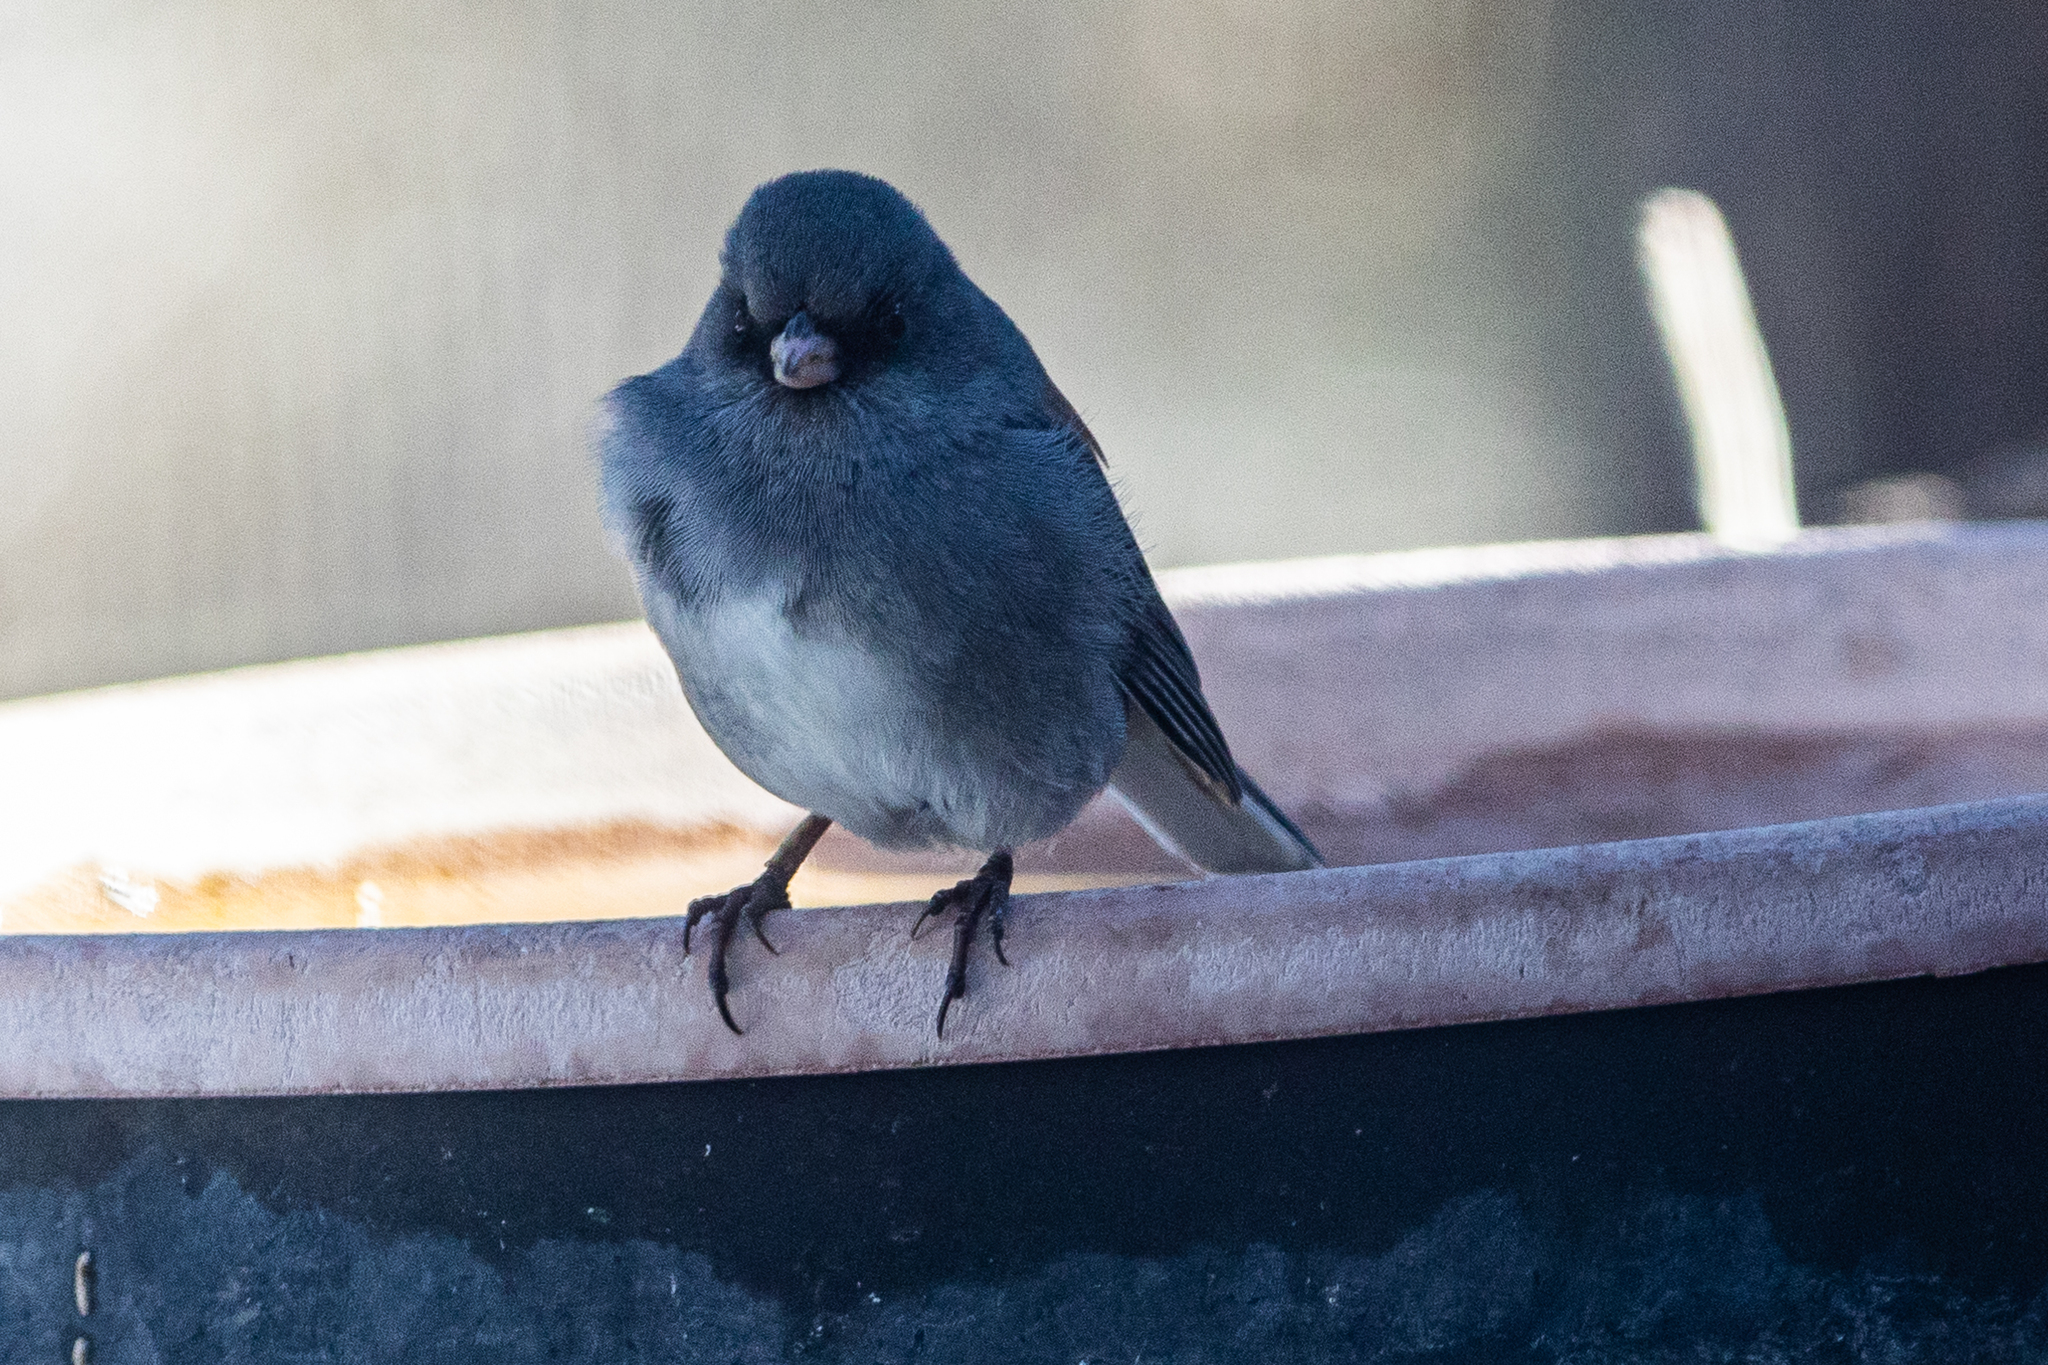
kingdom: Animalia
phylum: Chordata
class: Aves
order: Passeriformes
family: Passerellidae
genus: Junco
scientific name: Junco hyemalis
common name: Dark-eyed junco
